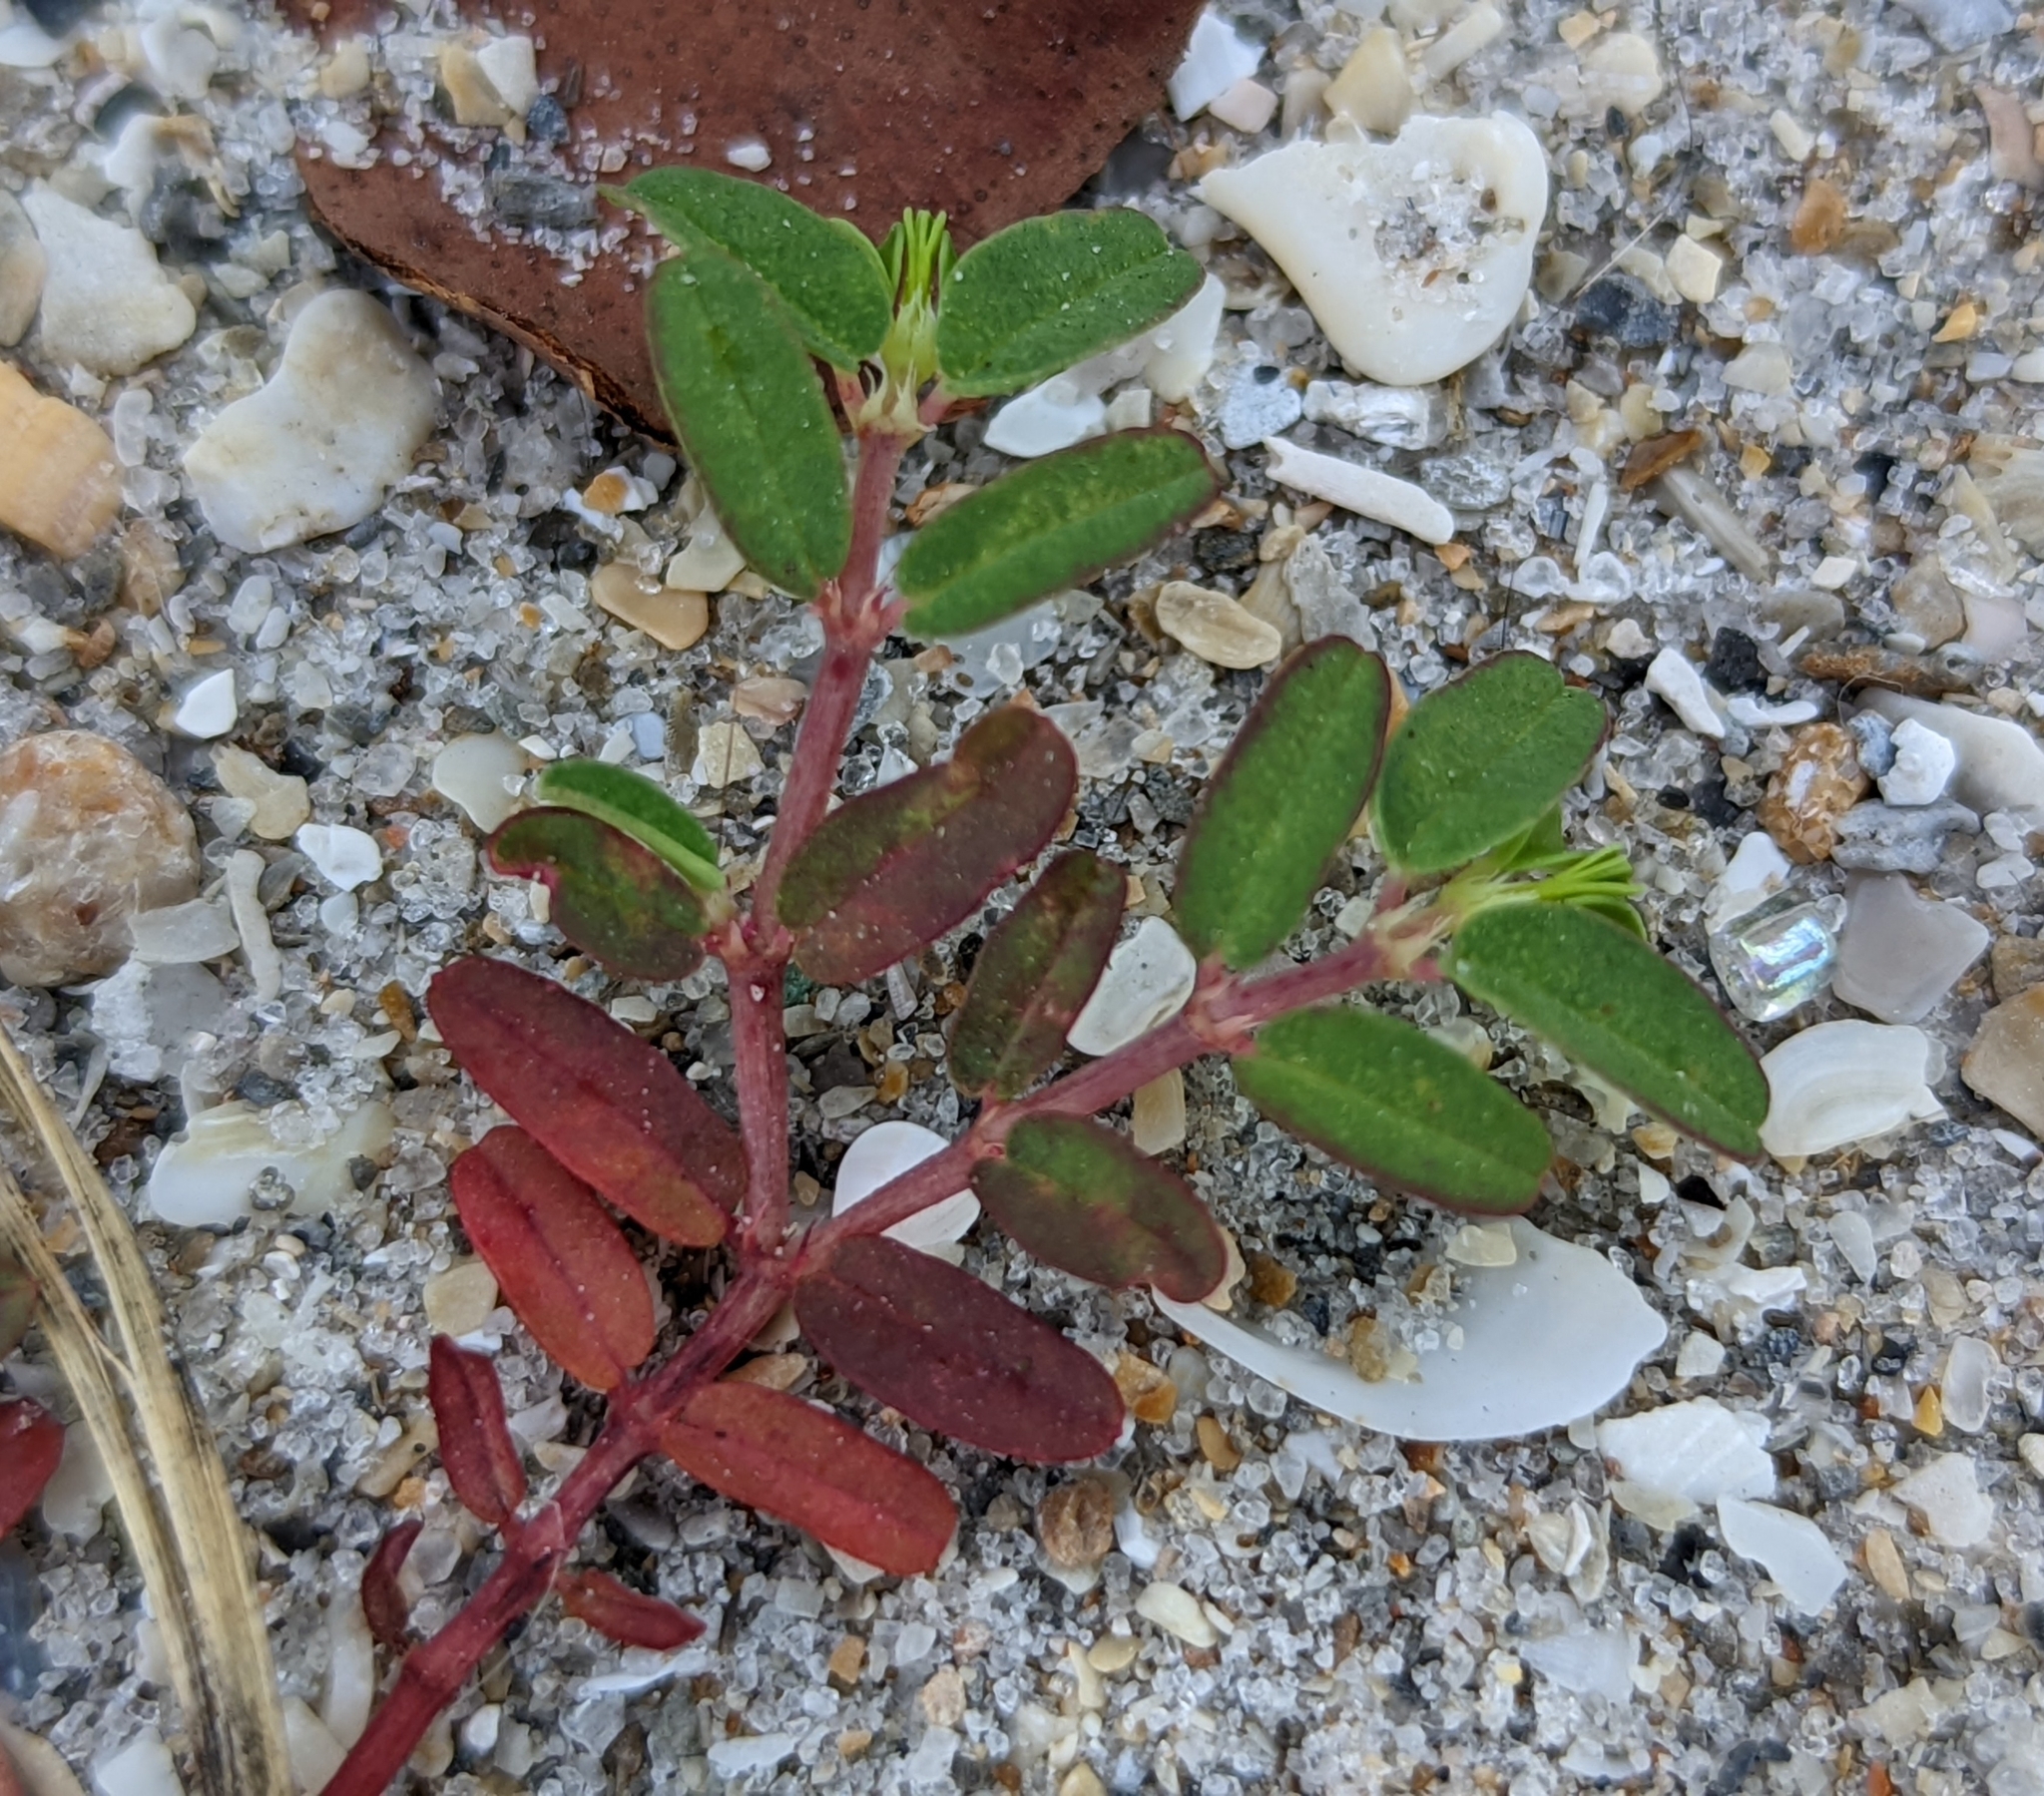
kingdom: Plantae
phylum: Tracheophyta
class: Magnoliopsida
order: Malpighiales
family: Euphorbiaceae
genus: Euphorbia
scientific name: Euphorbia bombensis
